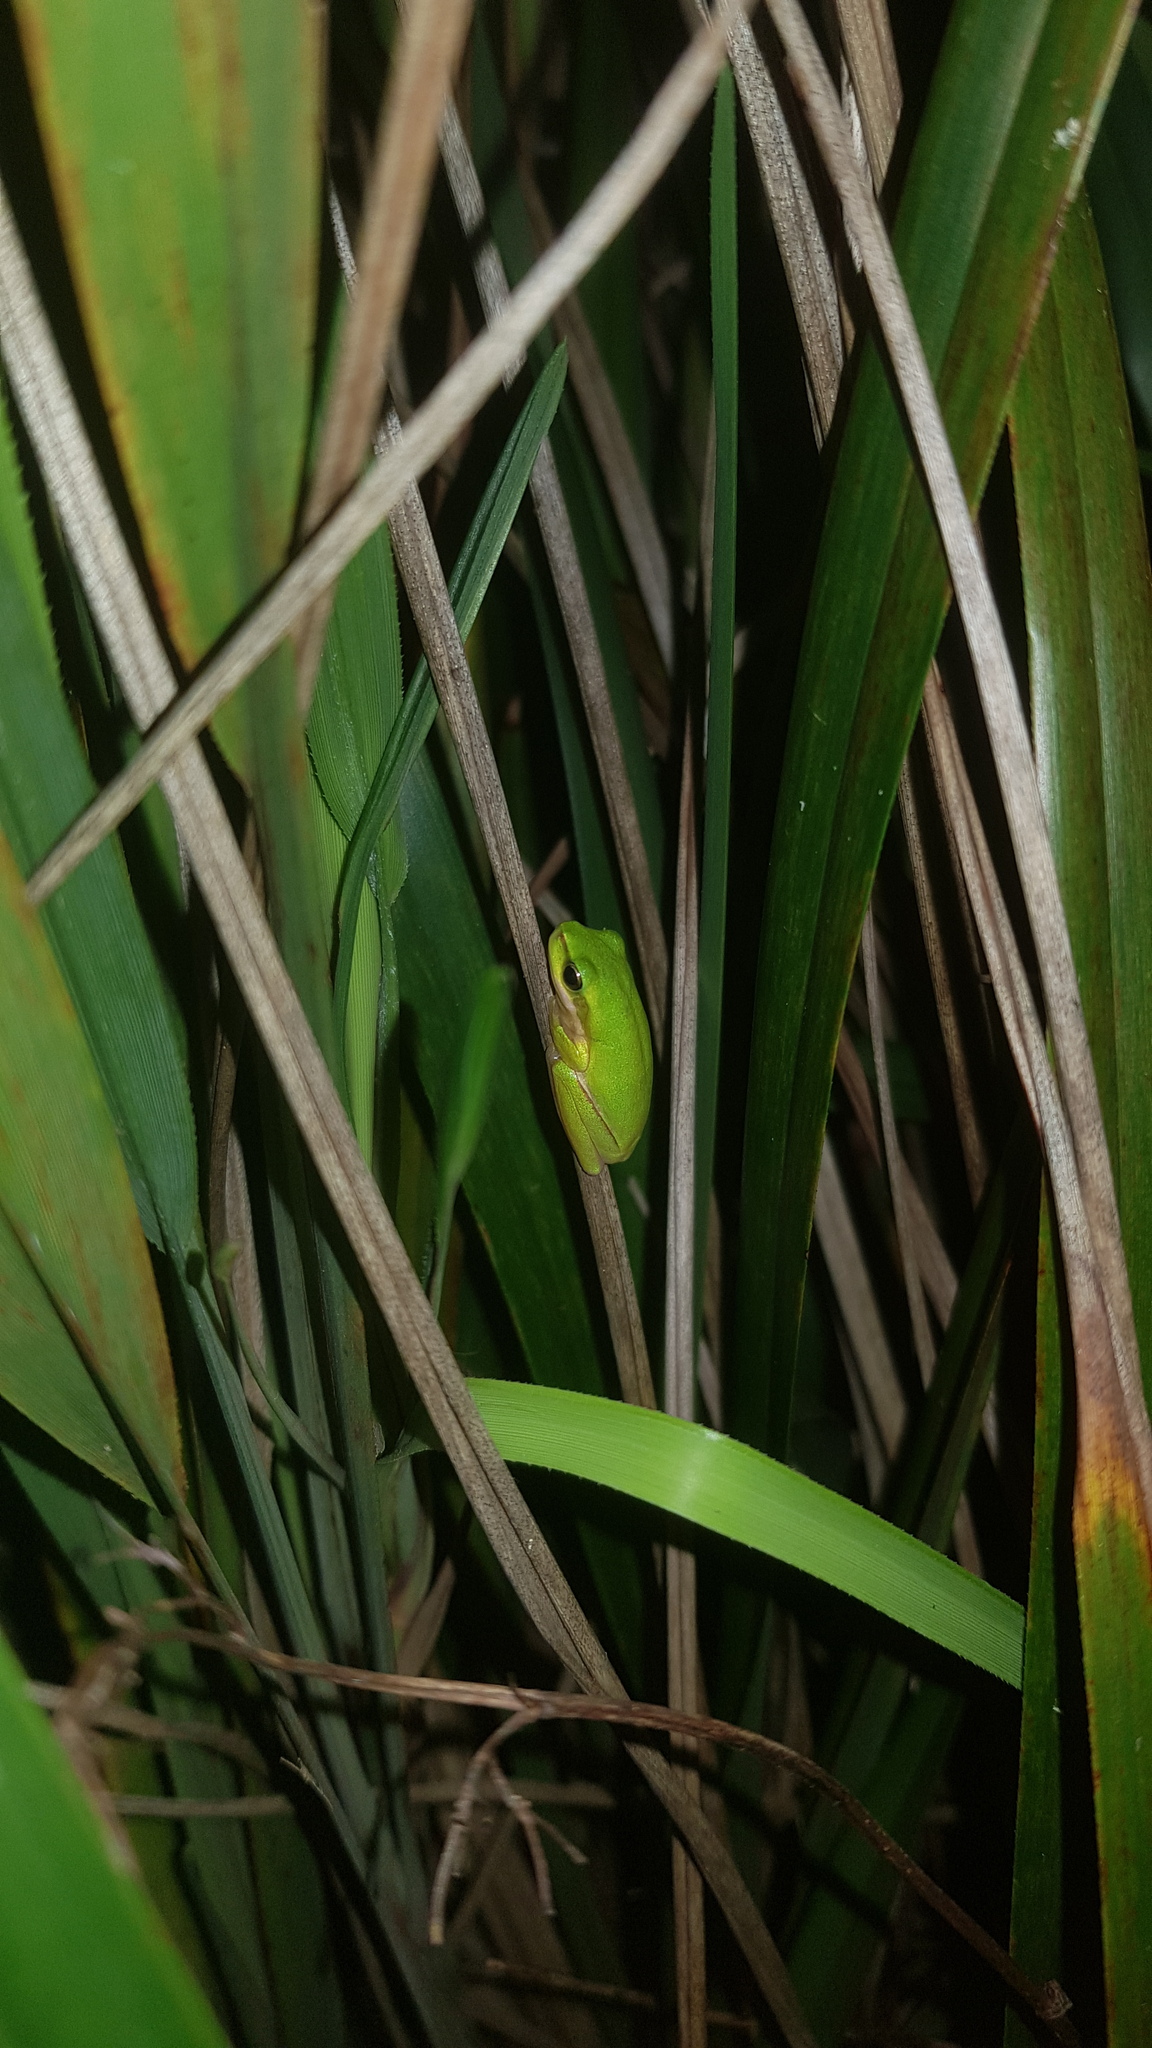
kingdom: Animalia
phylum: Chordata
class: Amphibia
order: Anura
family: Pelodryadidae
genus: Litoria
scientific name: Litoria fallax
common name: Eastern dwarf treefrog
